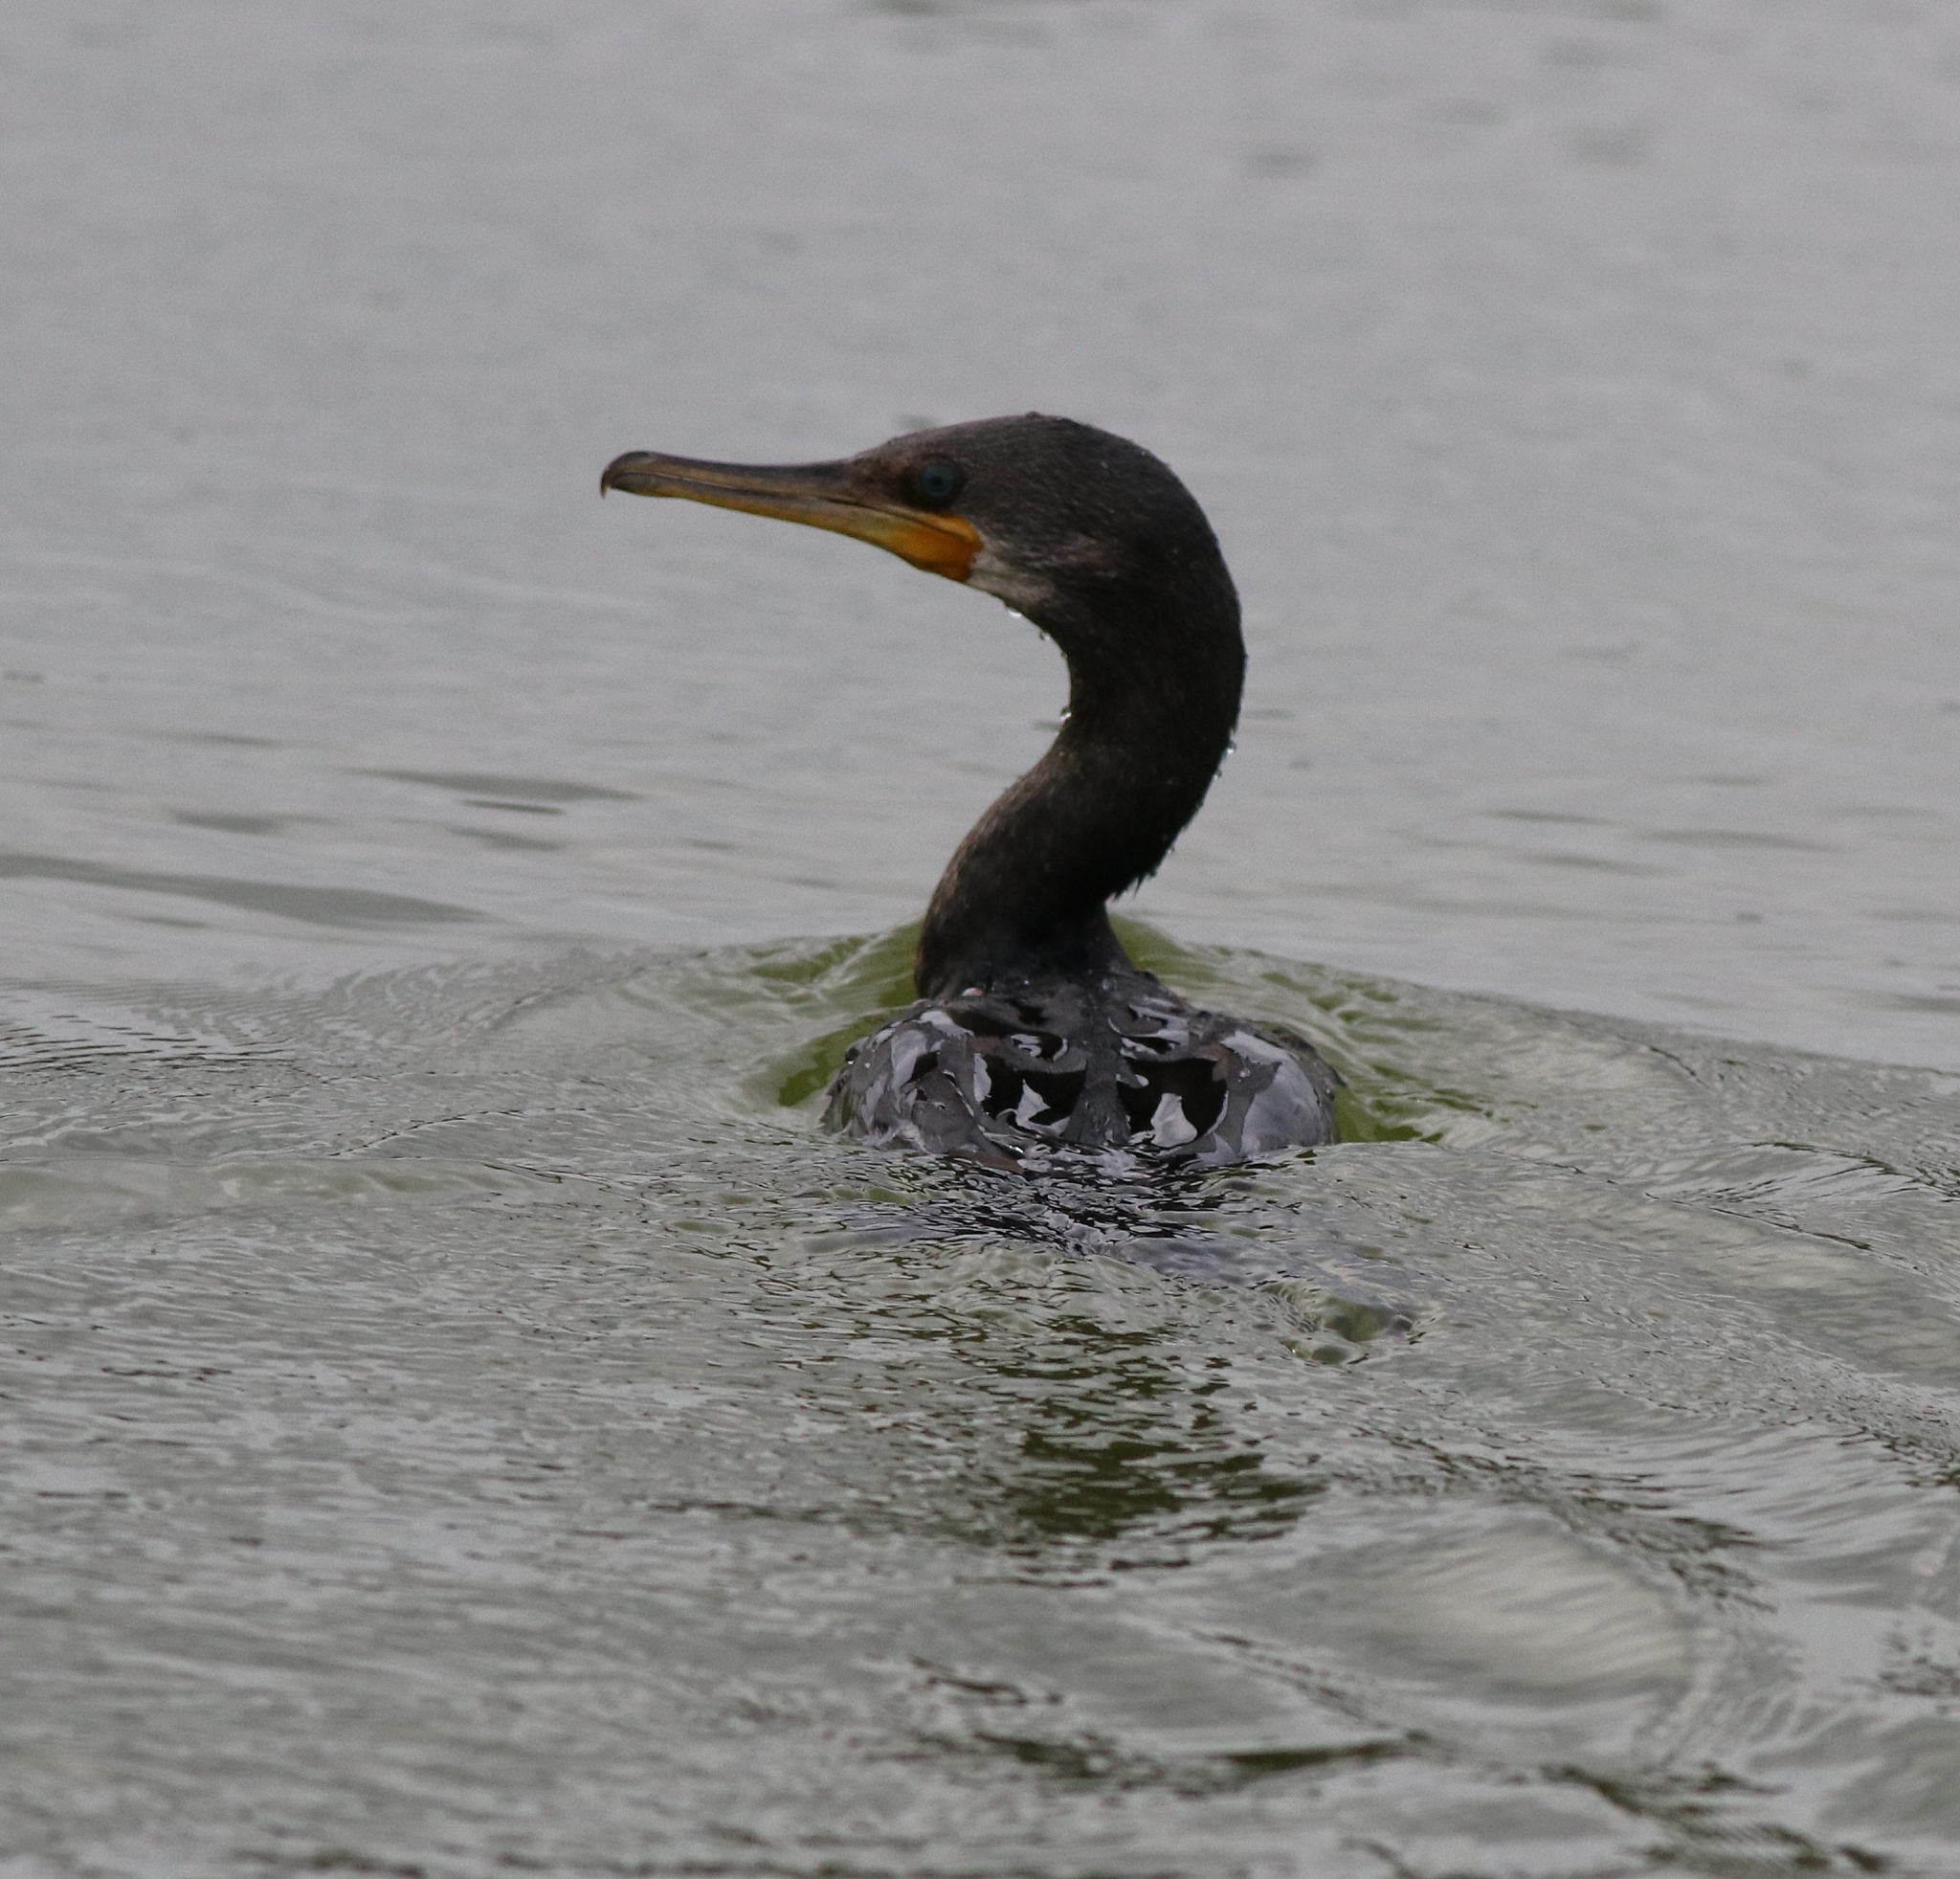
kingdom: Animalia
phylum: Chordata
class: Aves
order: Suliformes
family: Phalacrocoracidae
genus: Phalacrocorax
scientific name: Phalacrocorax fuscicollis
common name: Indian cormorant
